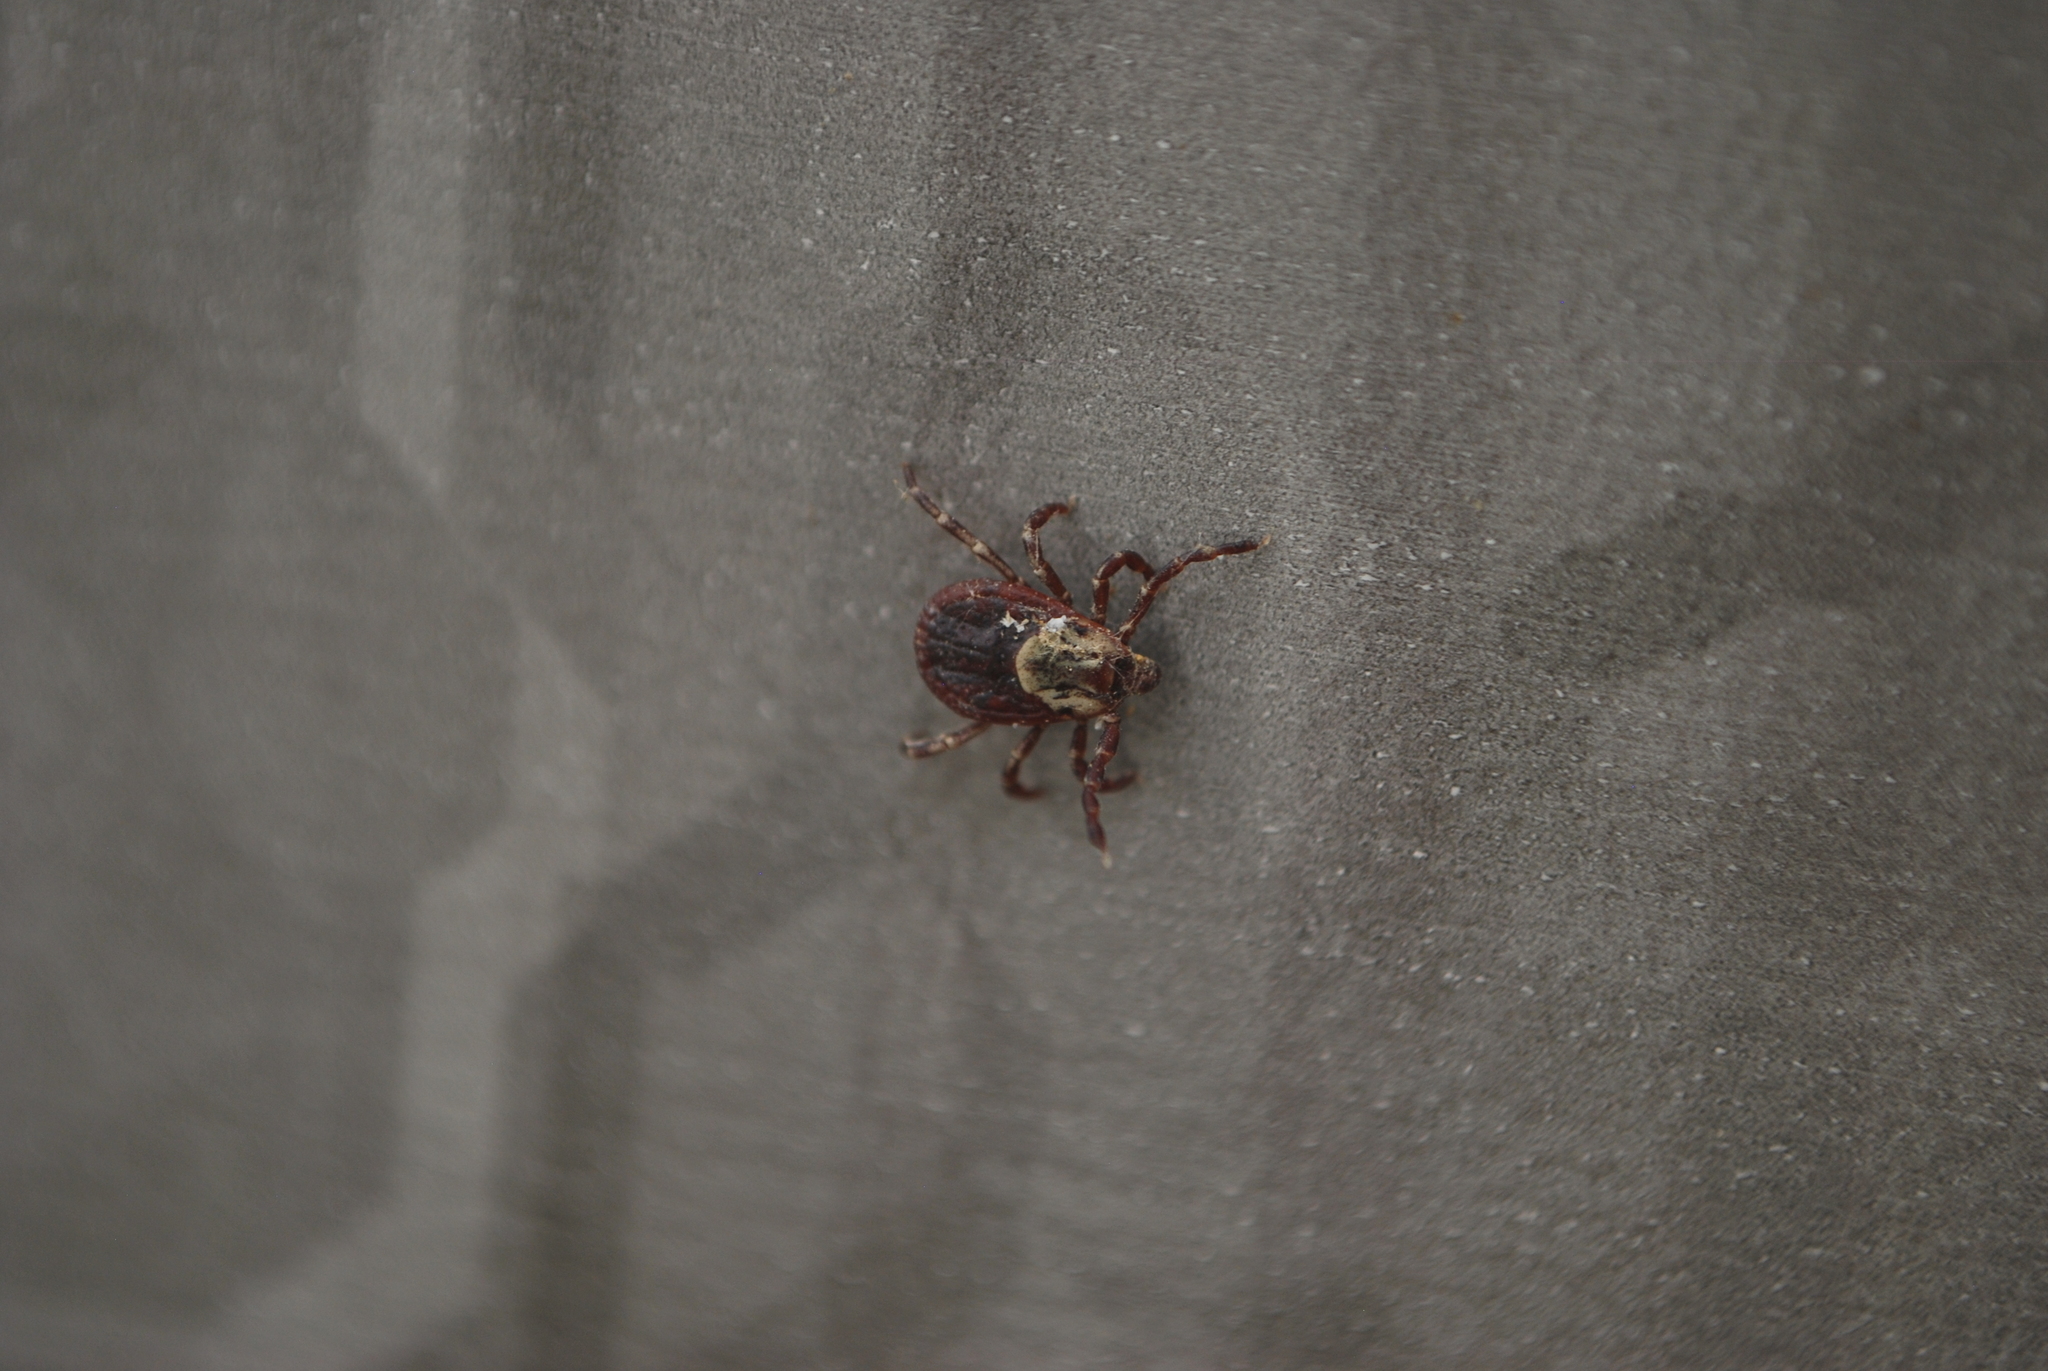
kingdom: Animalia
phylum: Arthropoda
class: Arachnida
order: Ixodida
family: Ixodidae
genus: Dermacentor
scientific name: Dermacentor variabilis
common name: American dog tick
